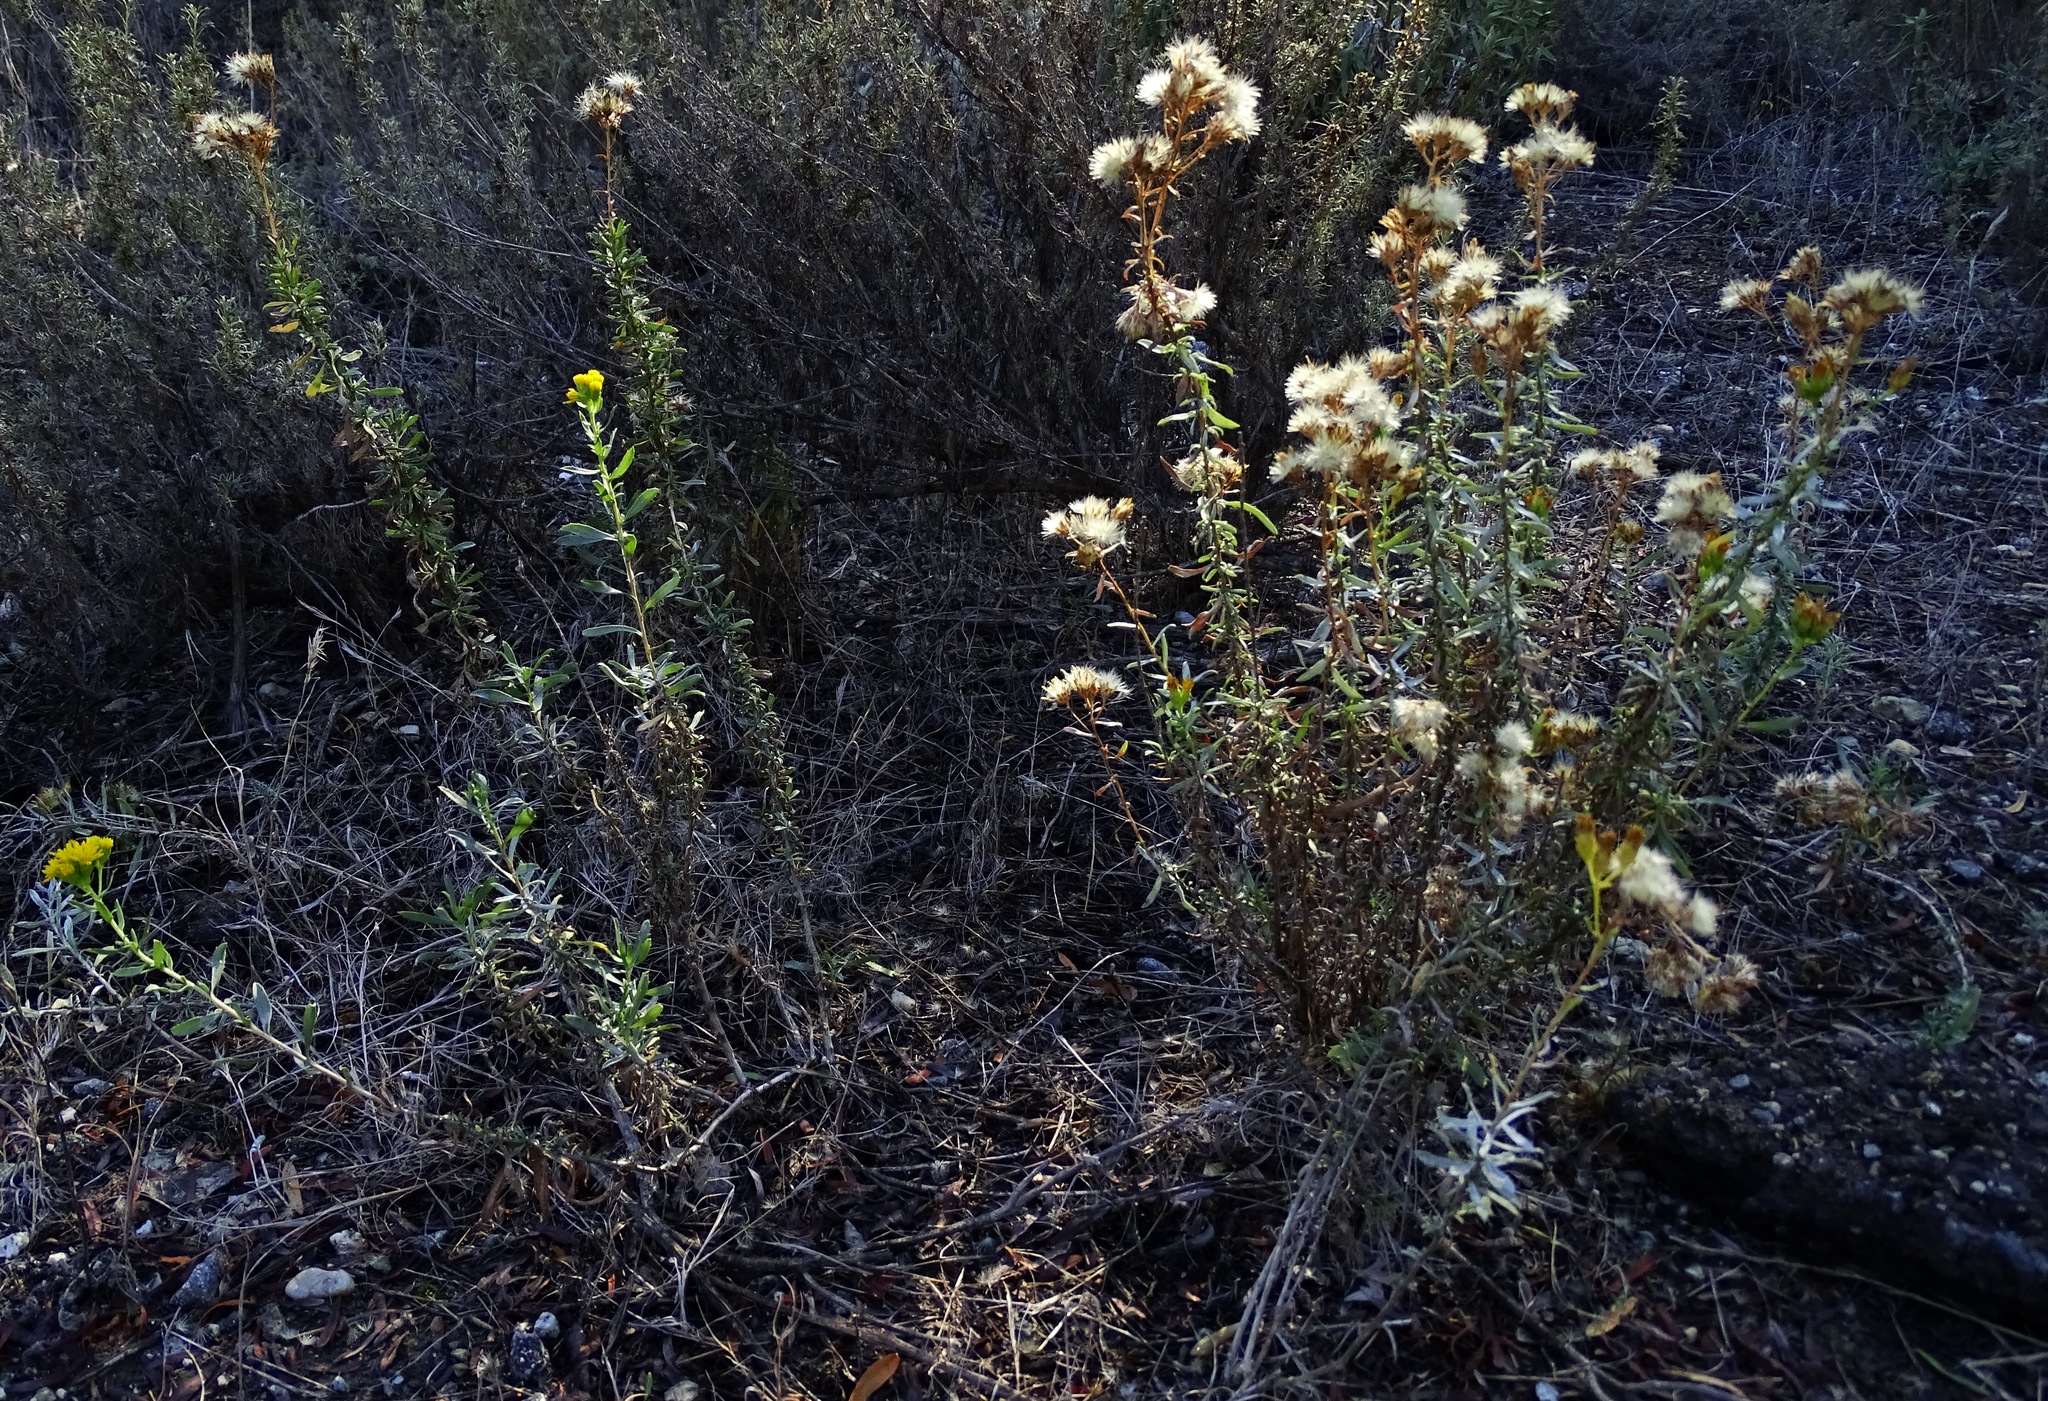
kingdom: Plantae
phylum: Tracheophyta
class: Magnoliopsida
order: Asterales
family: Asteraceae
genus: Isocoma
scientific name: Isocoma menziesii
